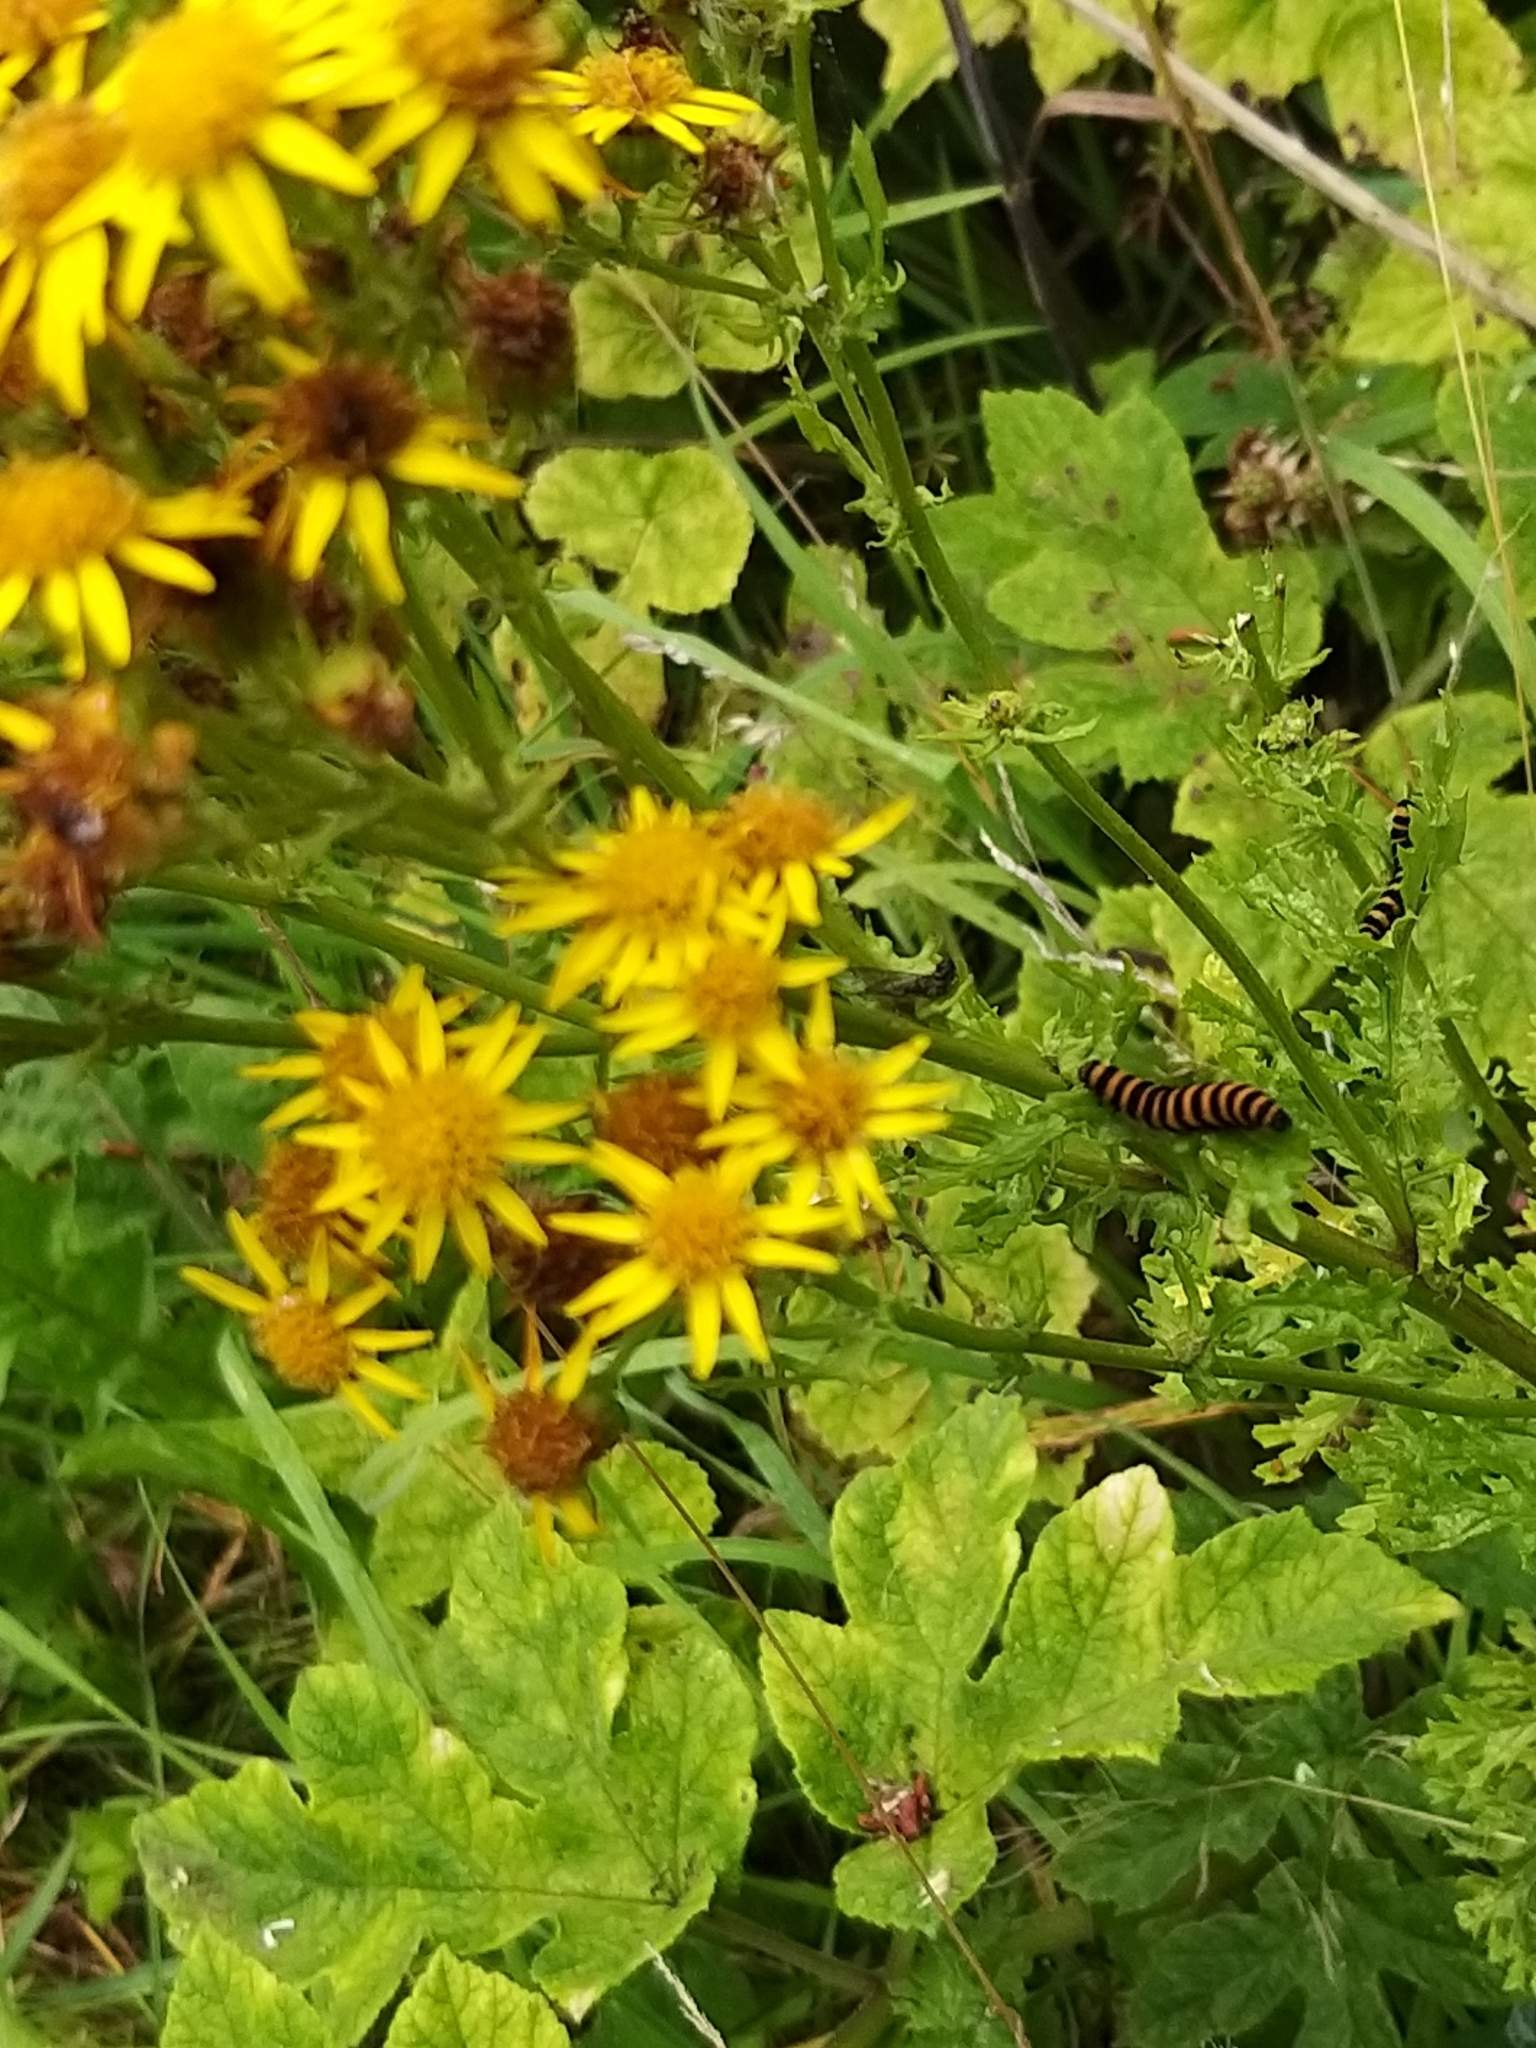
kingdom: Animalia
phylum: Arthropoda
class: Insecta
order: Lepidoptera
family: Erebidae
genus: Tyria
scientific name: Tyria jacobaeae
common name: Cinnabar
